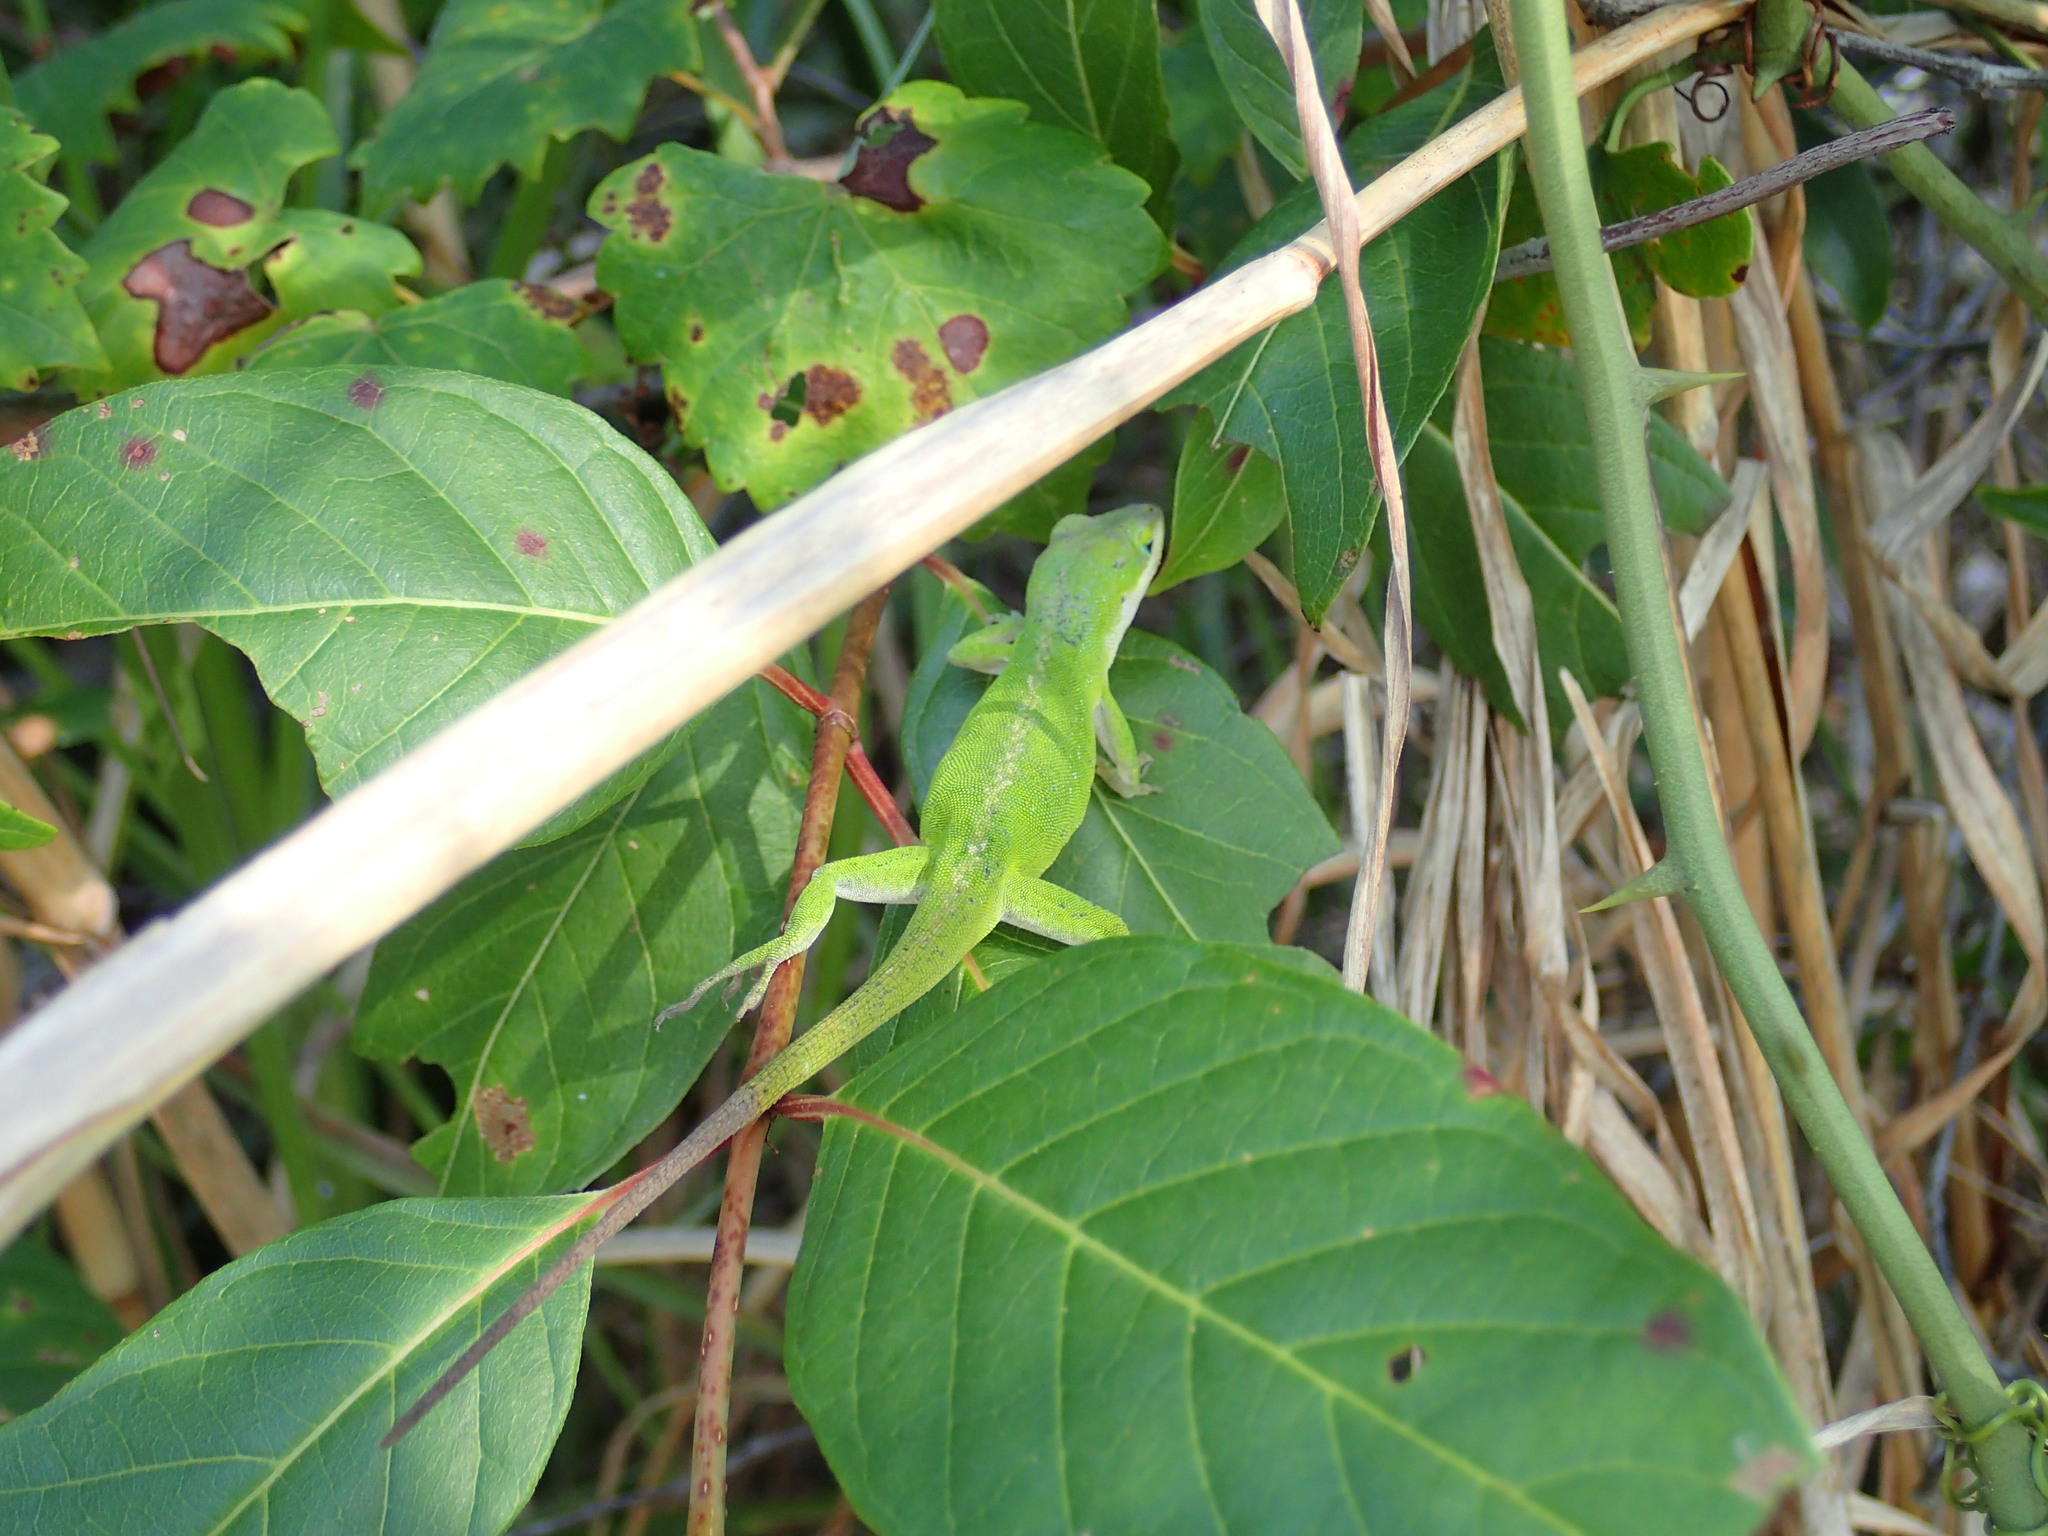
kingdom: Animalia
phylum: Chordata
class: Squamata
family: Dactyloidae
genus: Anolis
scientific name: Anolis carolinensis
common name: Green anole
